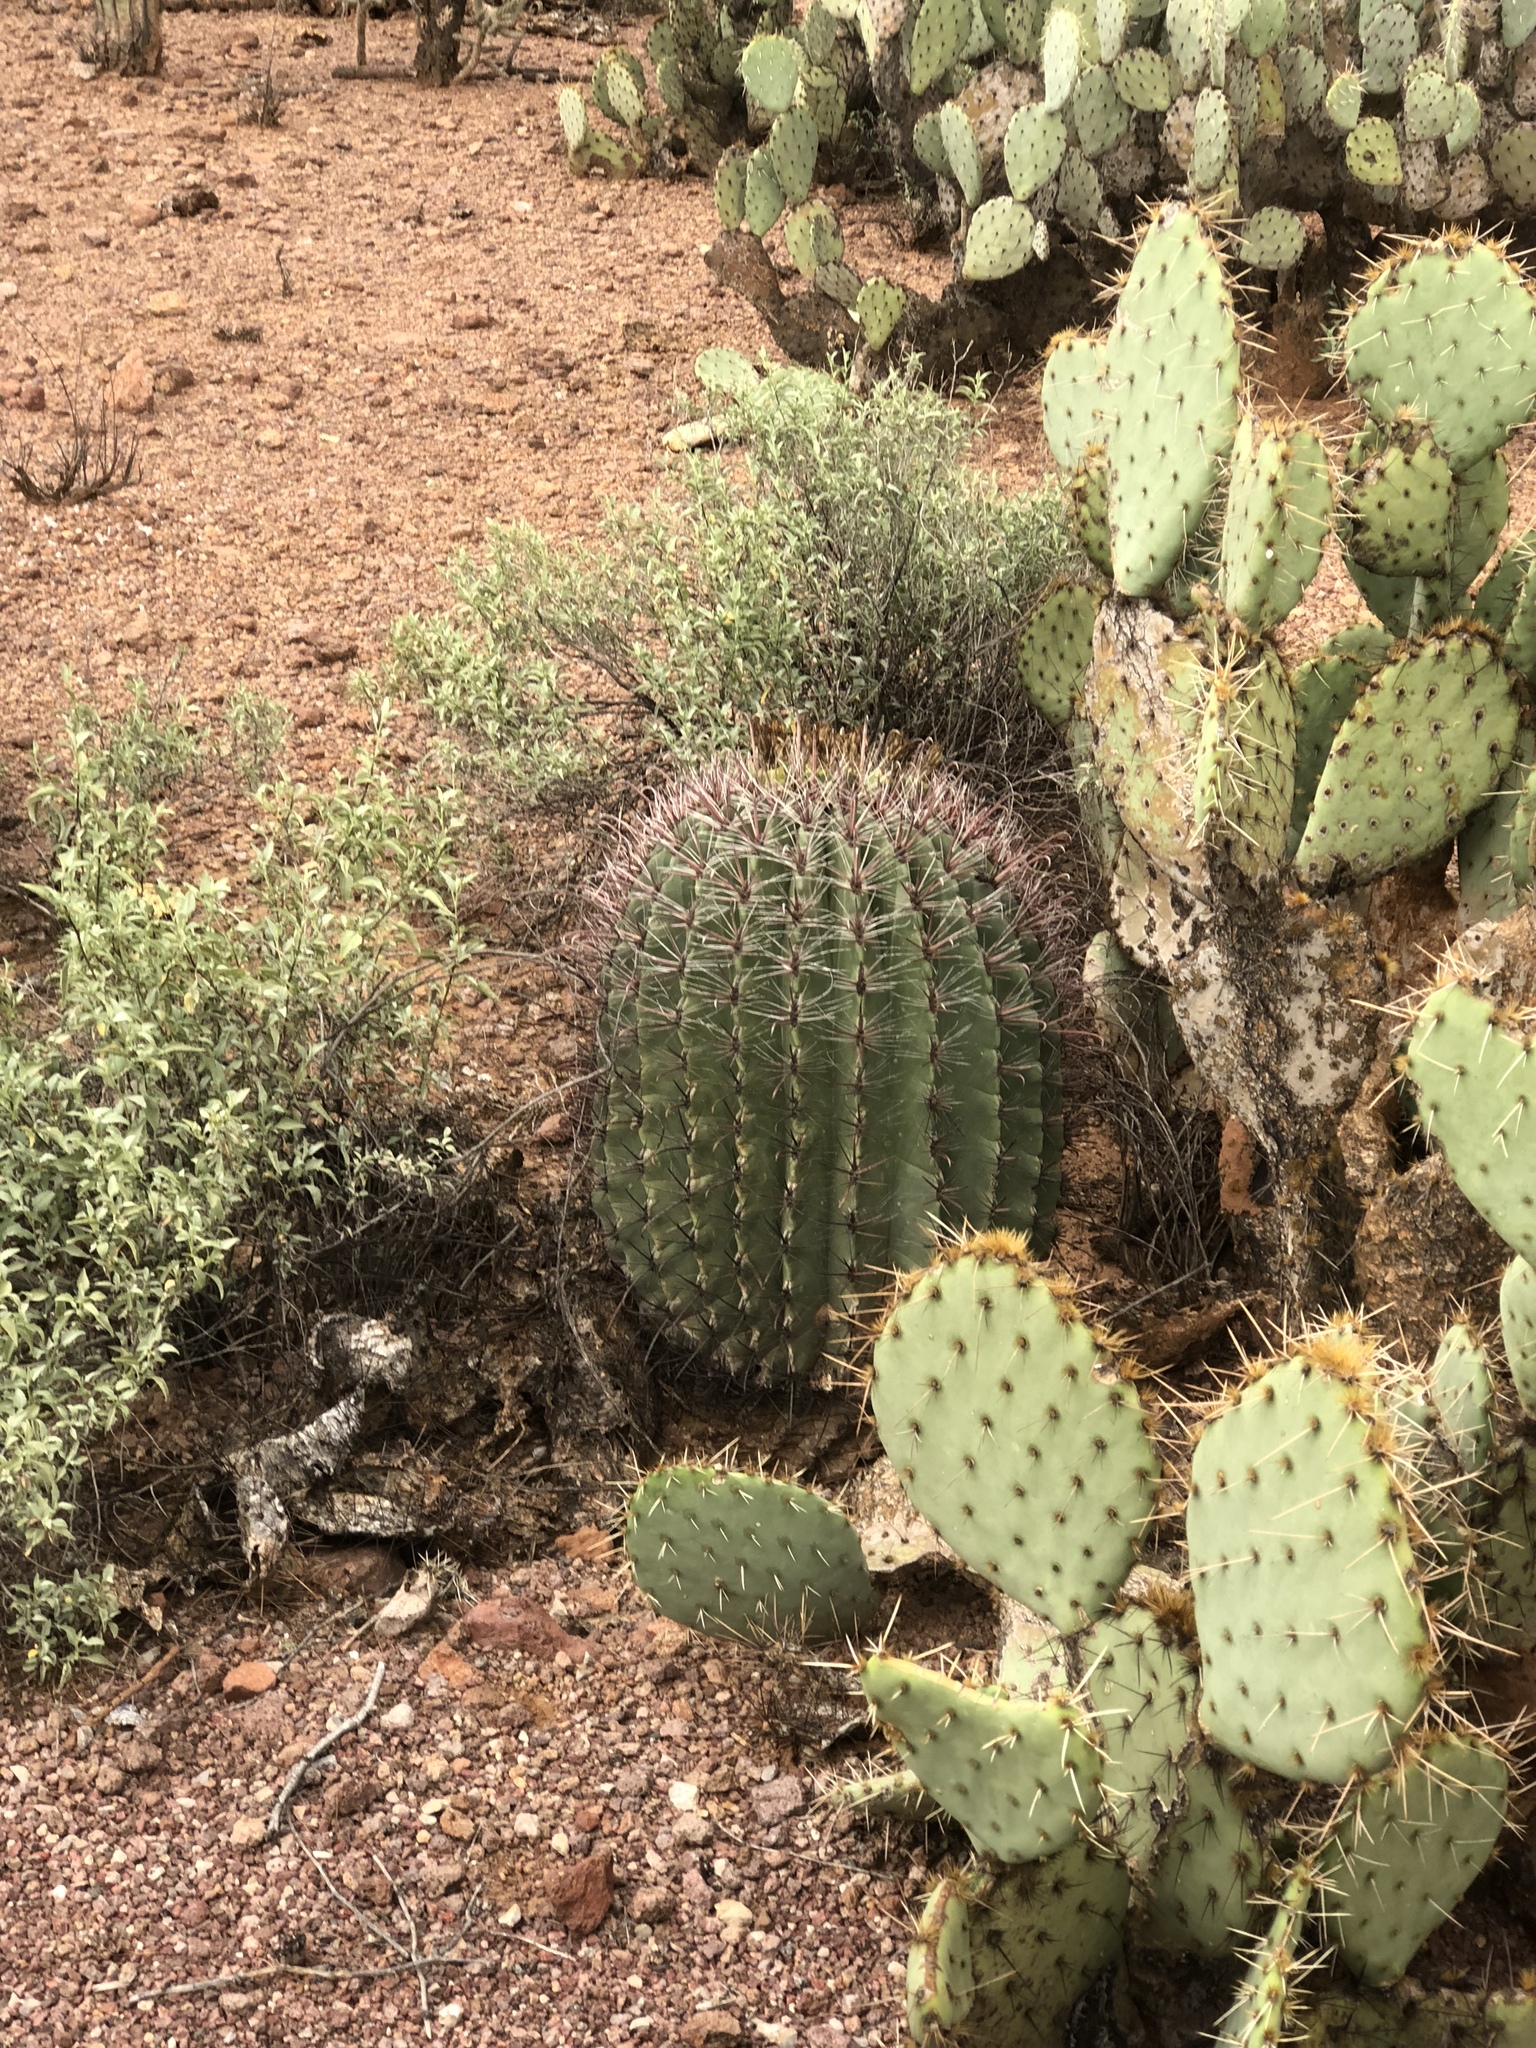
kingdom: Plantae
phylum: Tracheophyta
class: Magnoliopsida
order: Caryophyllales
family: Cactaceae
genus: Ferocactus
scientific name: Ferocactus wislizeni
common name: Candy barrel cactus
